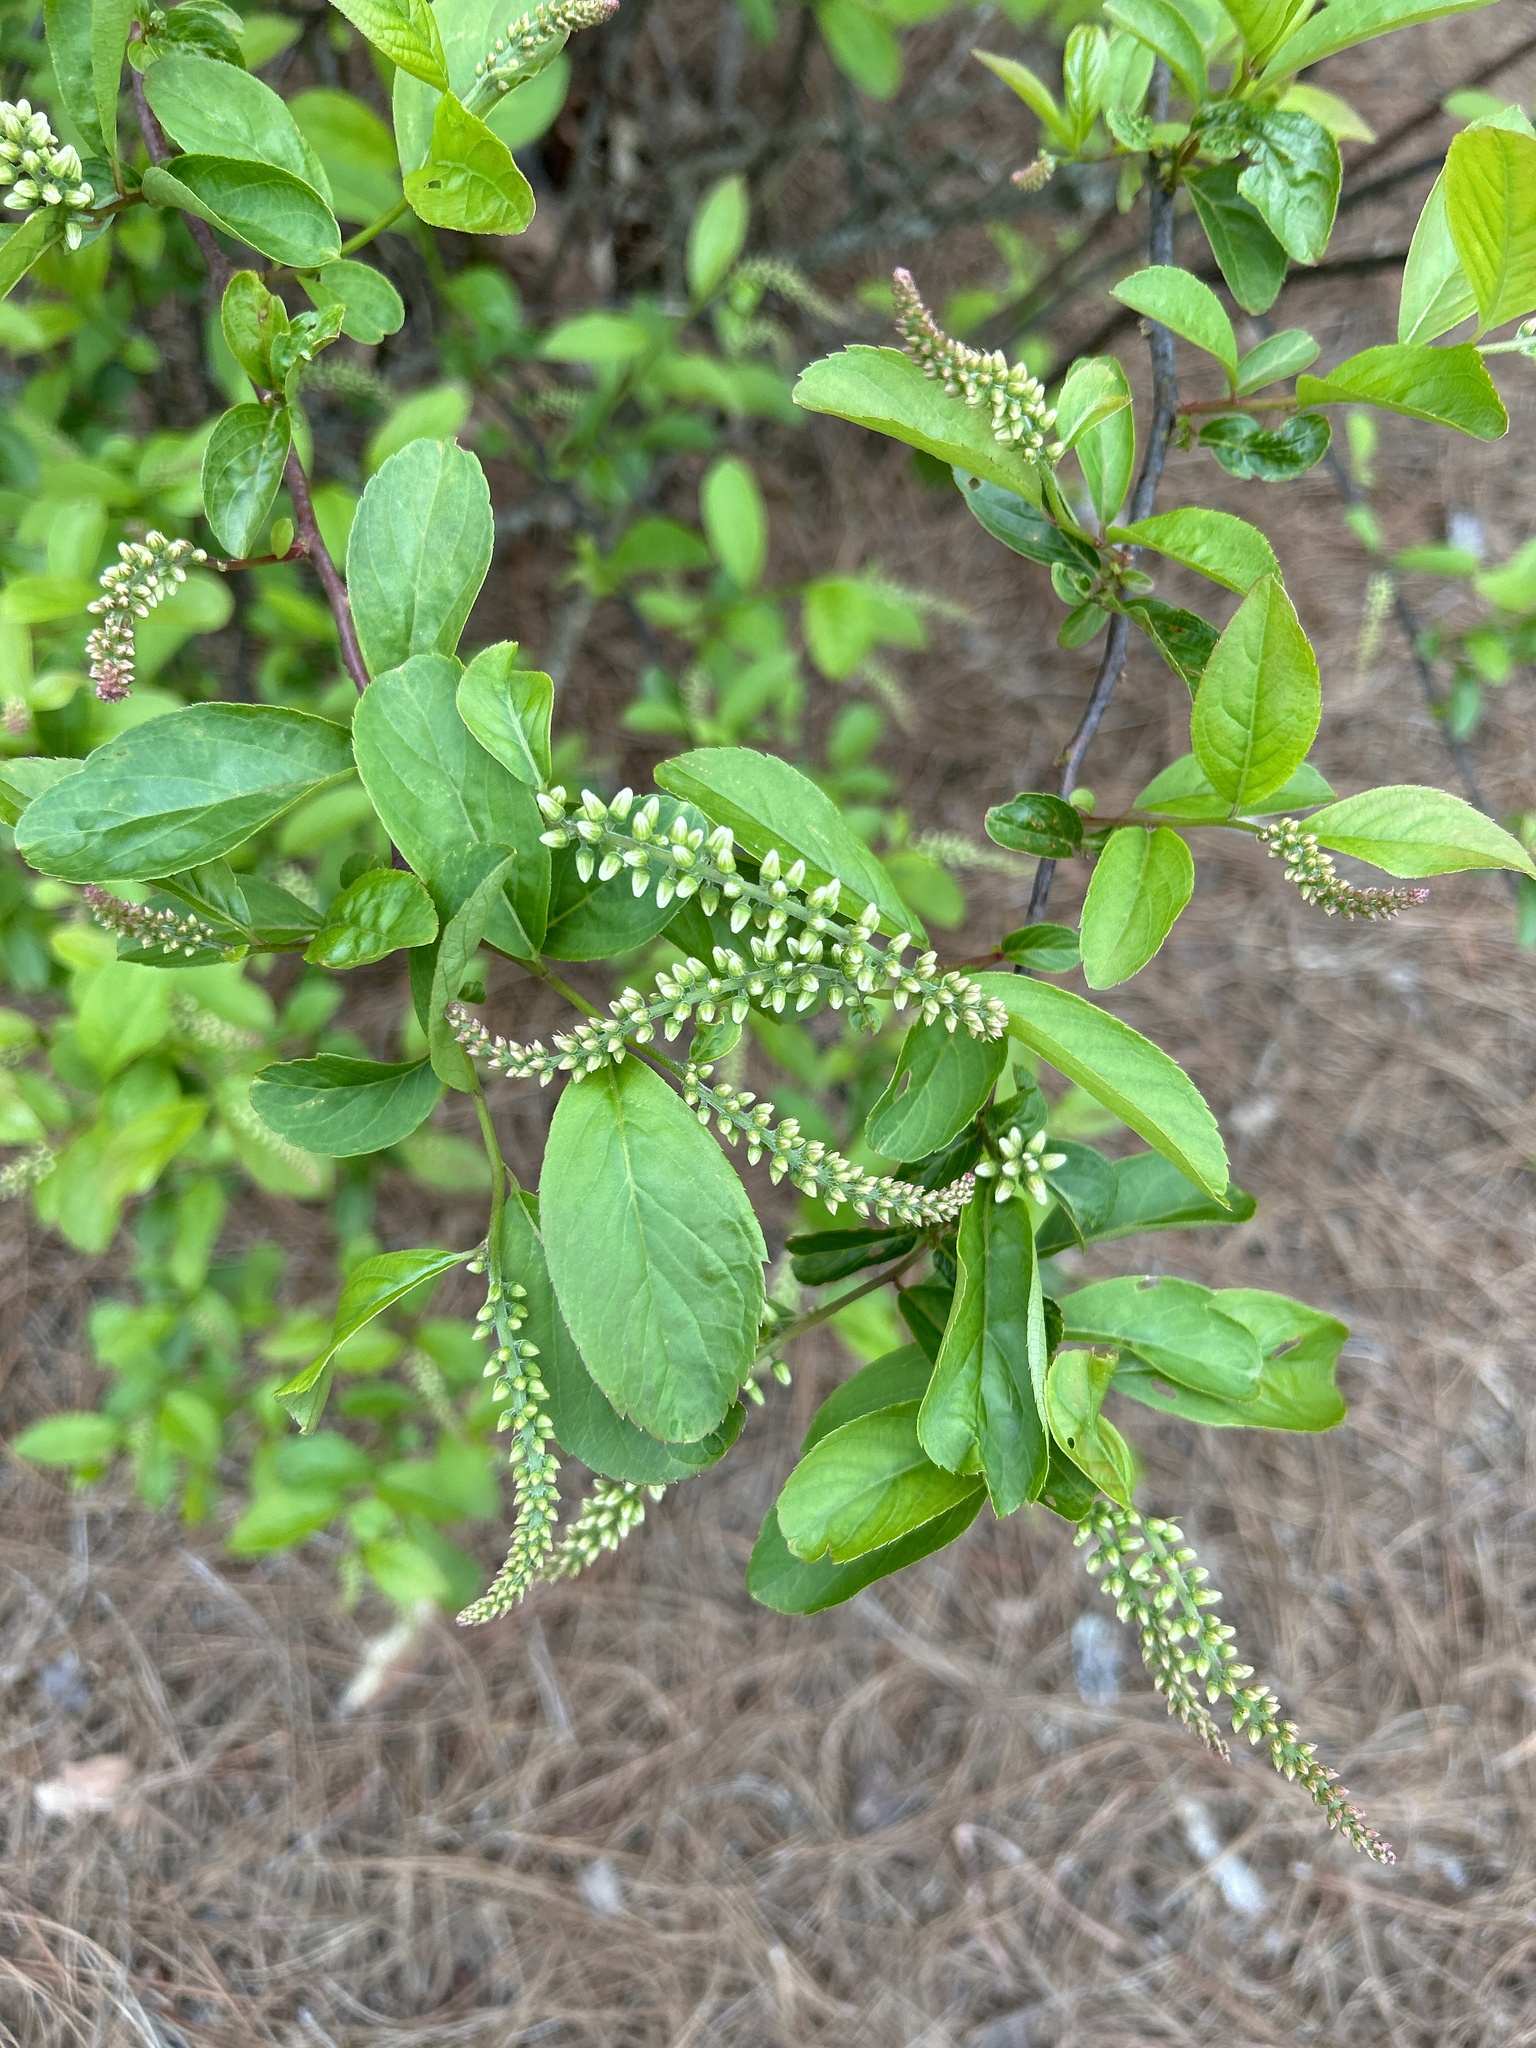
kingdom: Plantae
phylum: Tracheophyta
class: Magnoliopsida
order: Saxifragales
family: Iteaceae
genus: Itea
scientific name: Itea virginica
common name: Sweetspire
